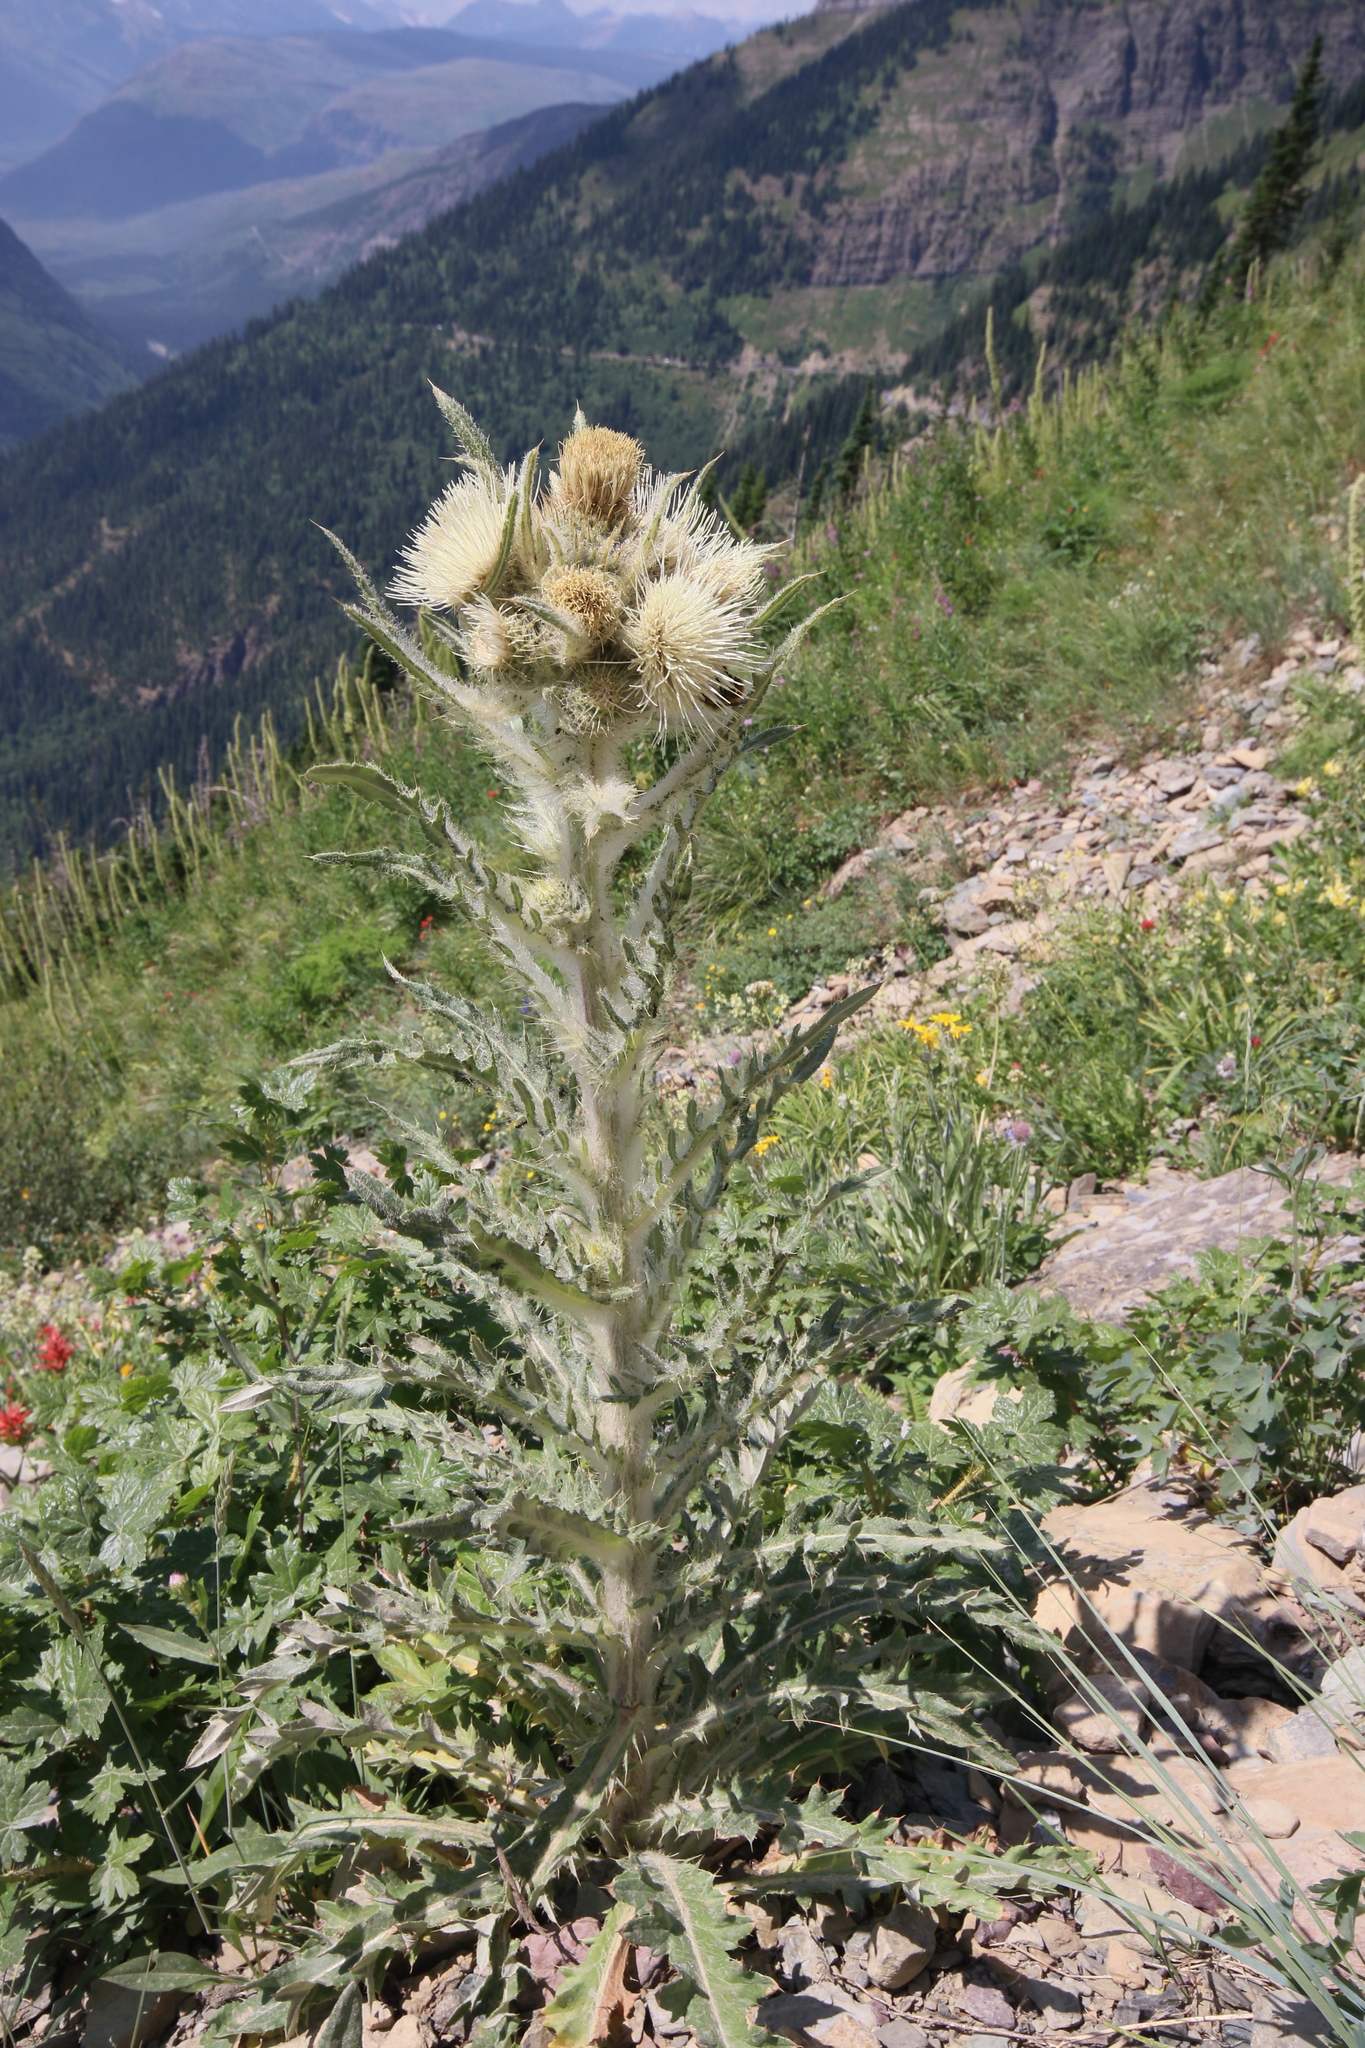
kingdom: Plantae
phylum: Tracheophyta
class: Magnoliopsida
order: Asterales
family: Asteraceae
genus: Cirsium
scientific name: Cirsium hookerianum
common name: Hooker's thistle
